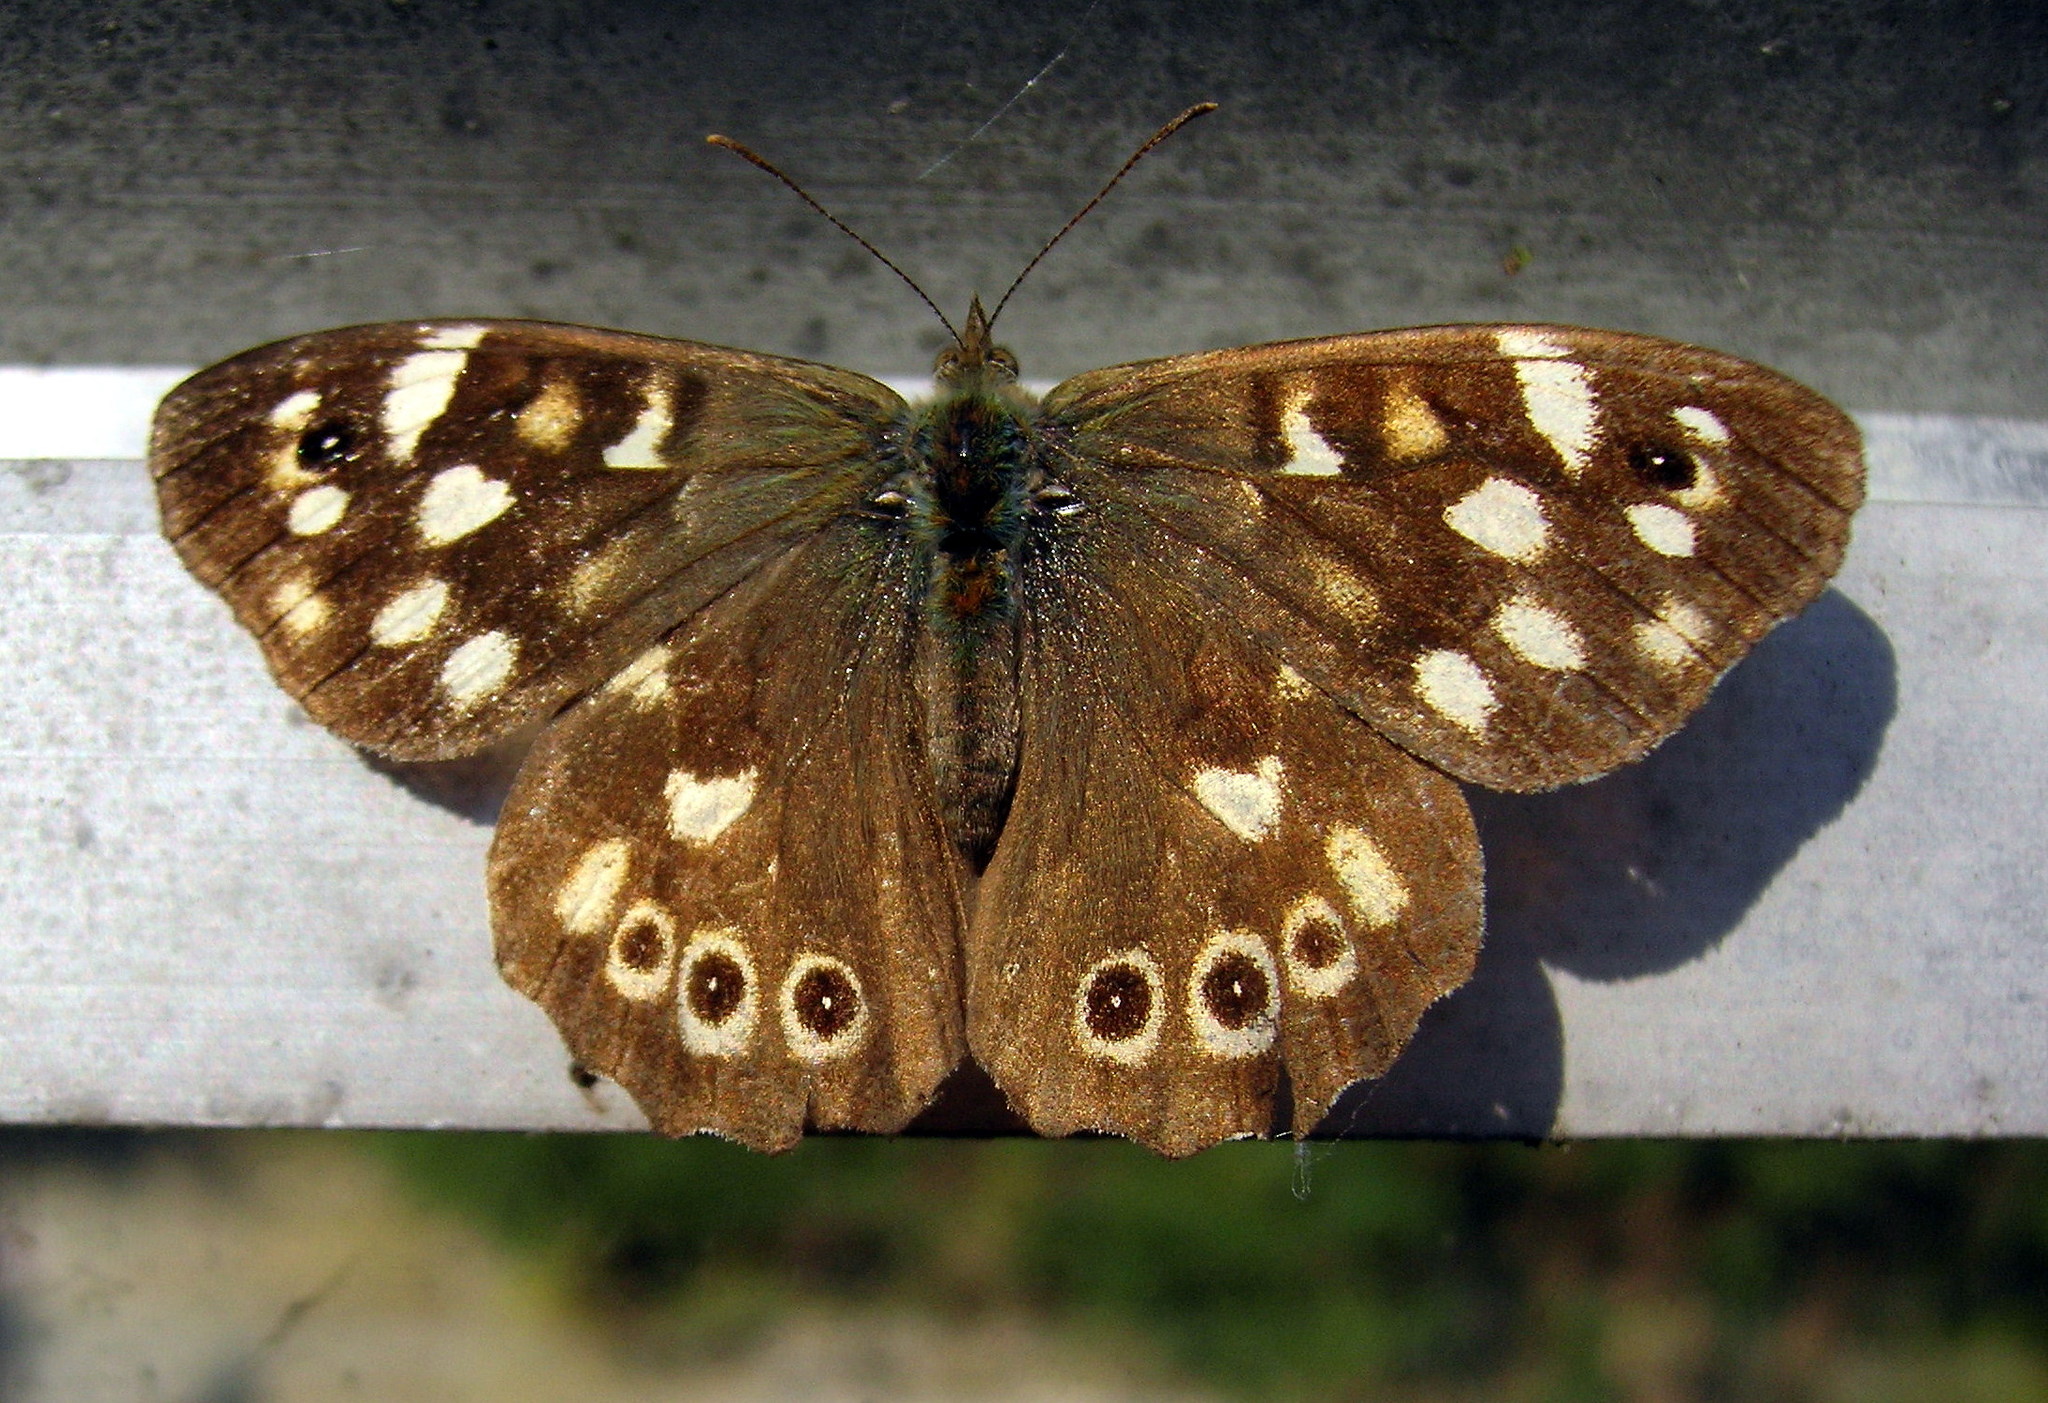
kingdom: Animalia
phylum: Arthropoda
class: Insecta
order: Lepidoptera
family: Nymphalidae
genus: Pararge
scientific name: Pararge aegeria
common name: Speckled wood
